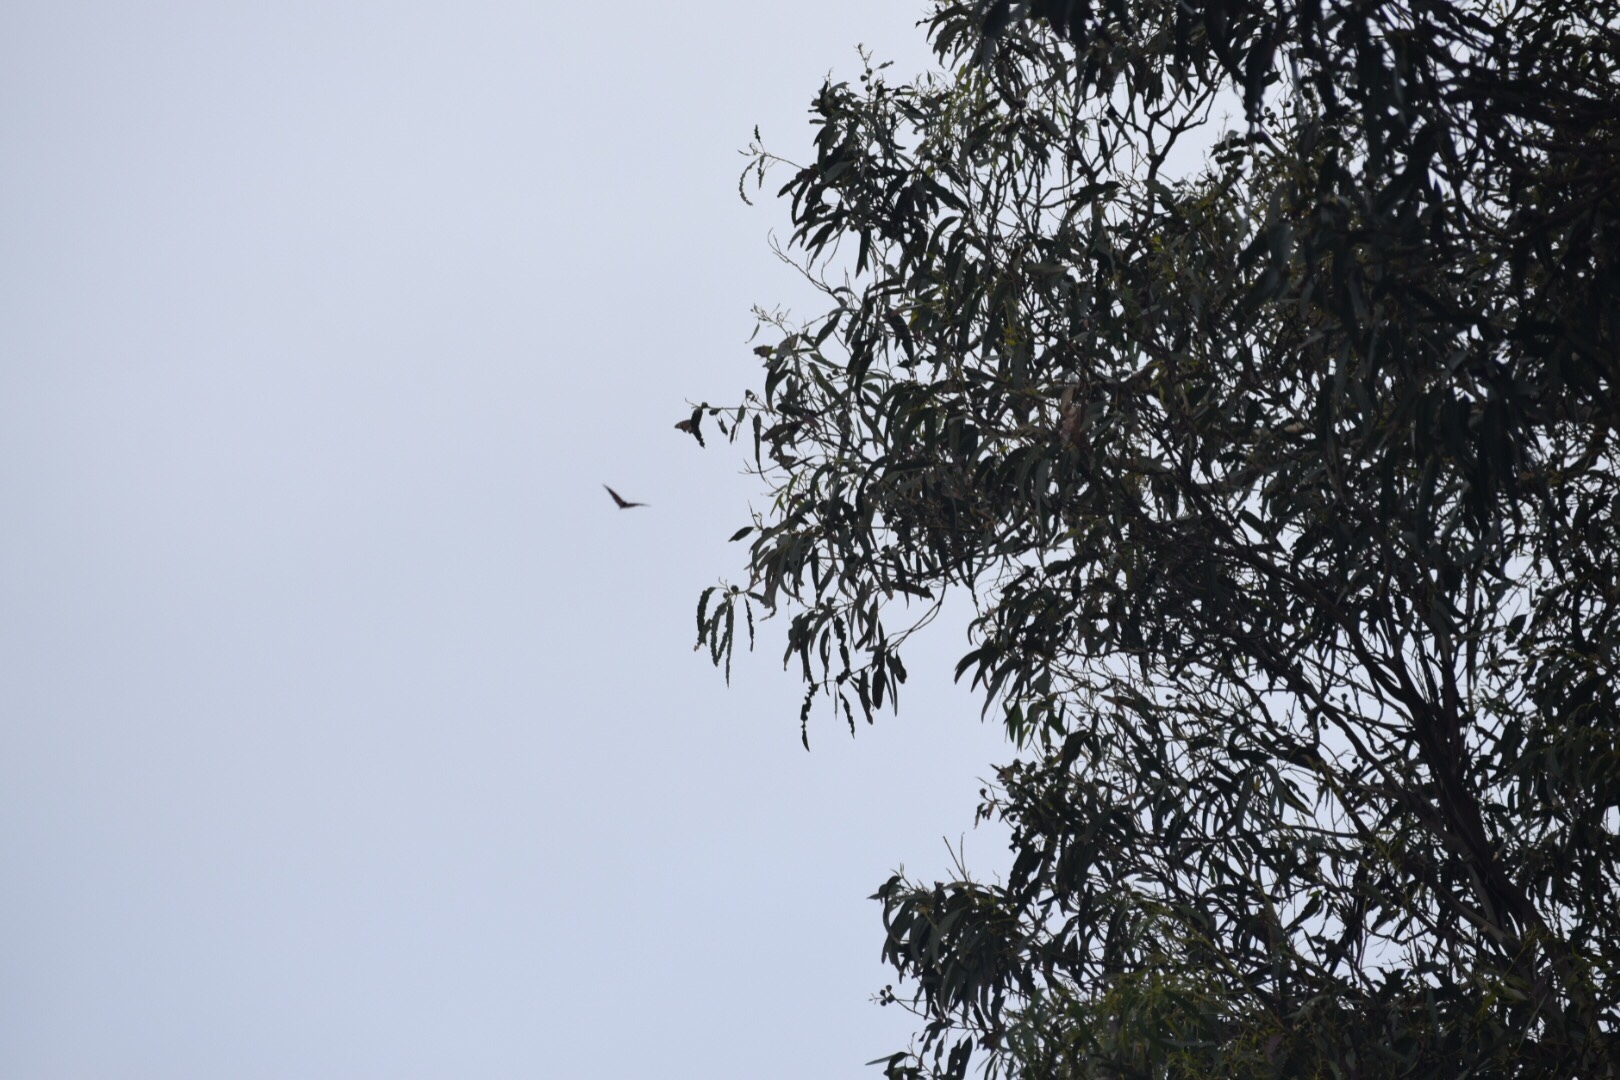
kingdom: Animalia
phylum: Arthropoda
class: Insecta
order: Lepidoptera
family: Nymphalidae
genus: Danaus
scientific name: Danaus plexippus
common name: Monarch
